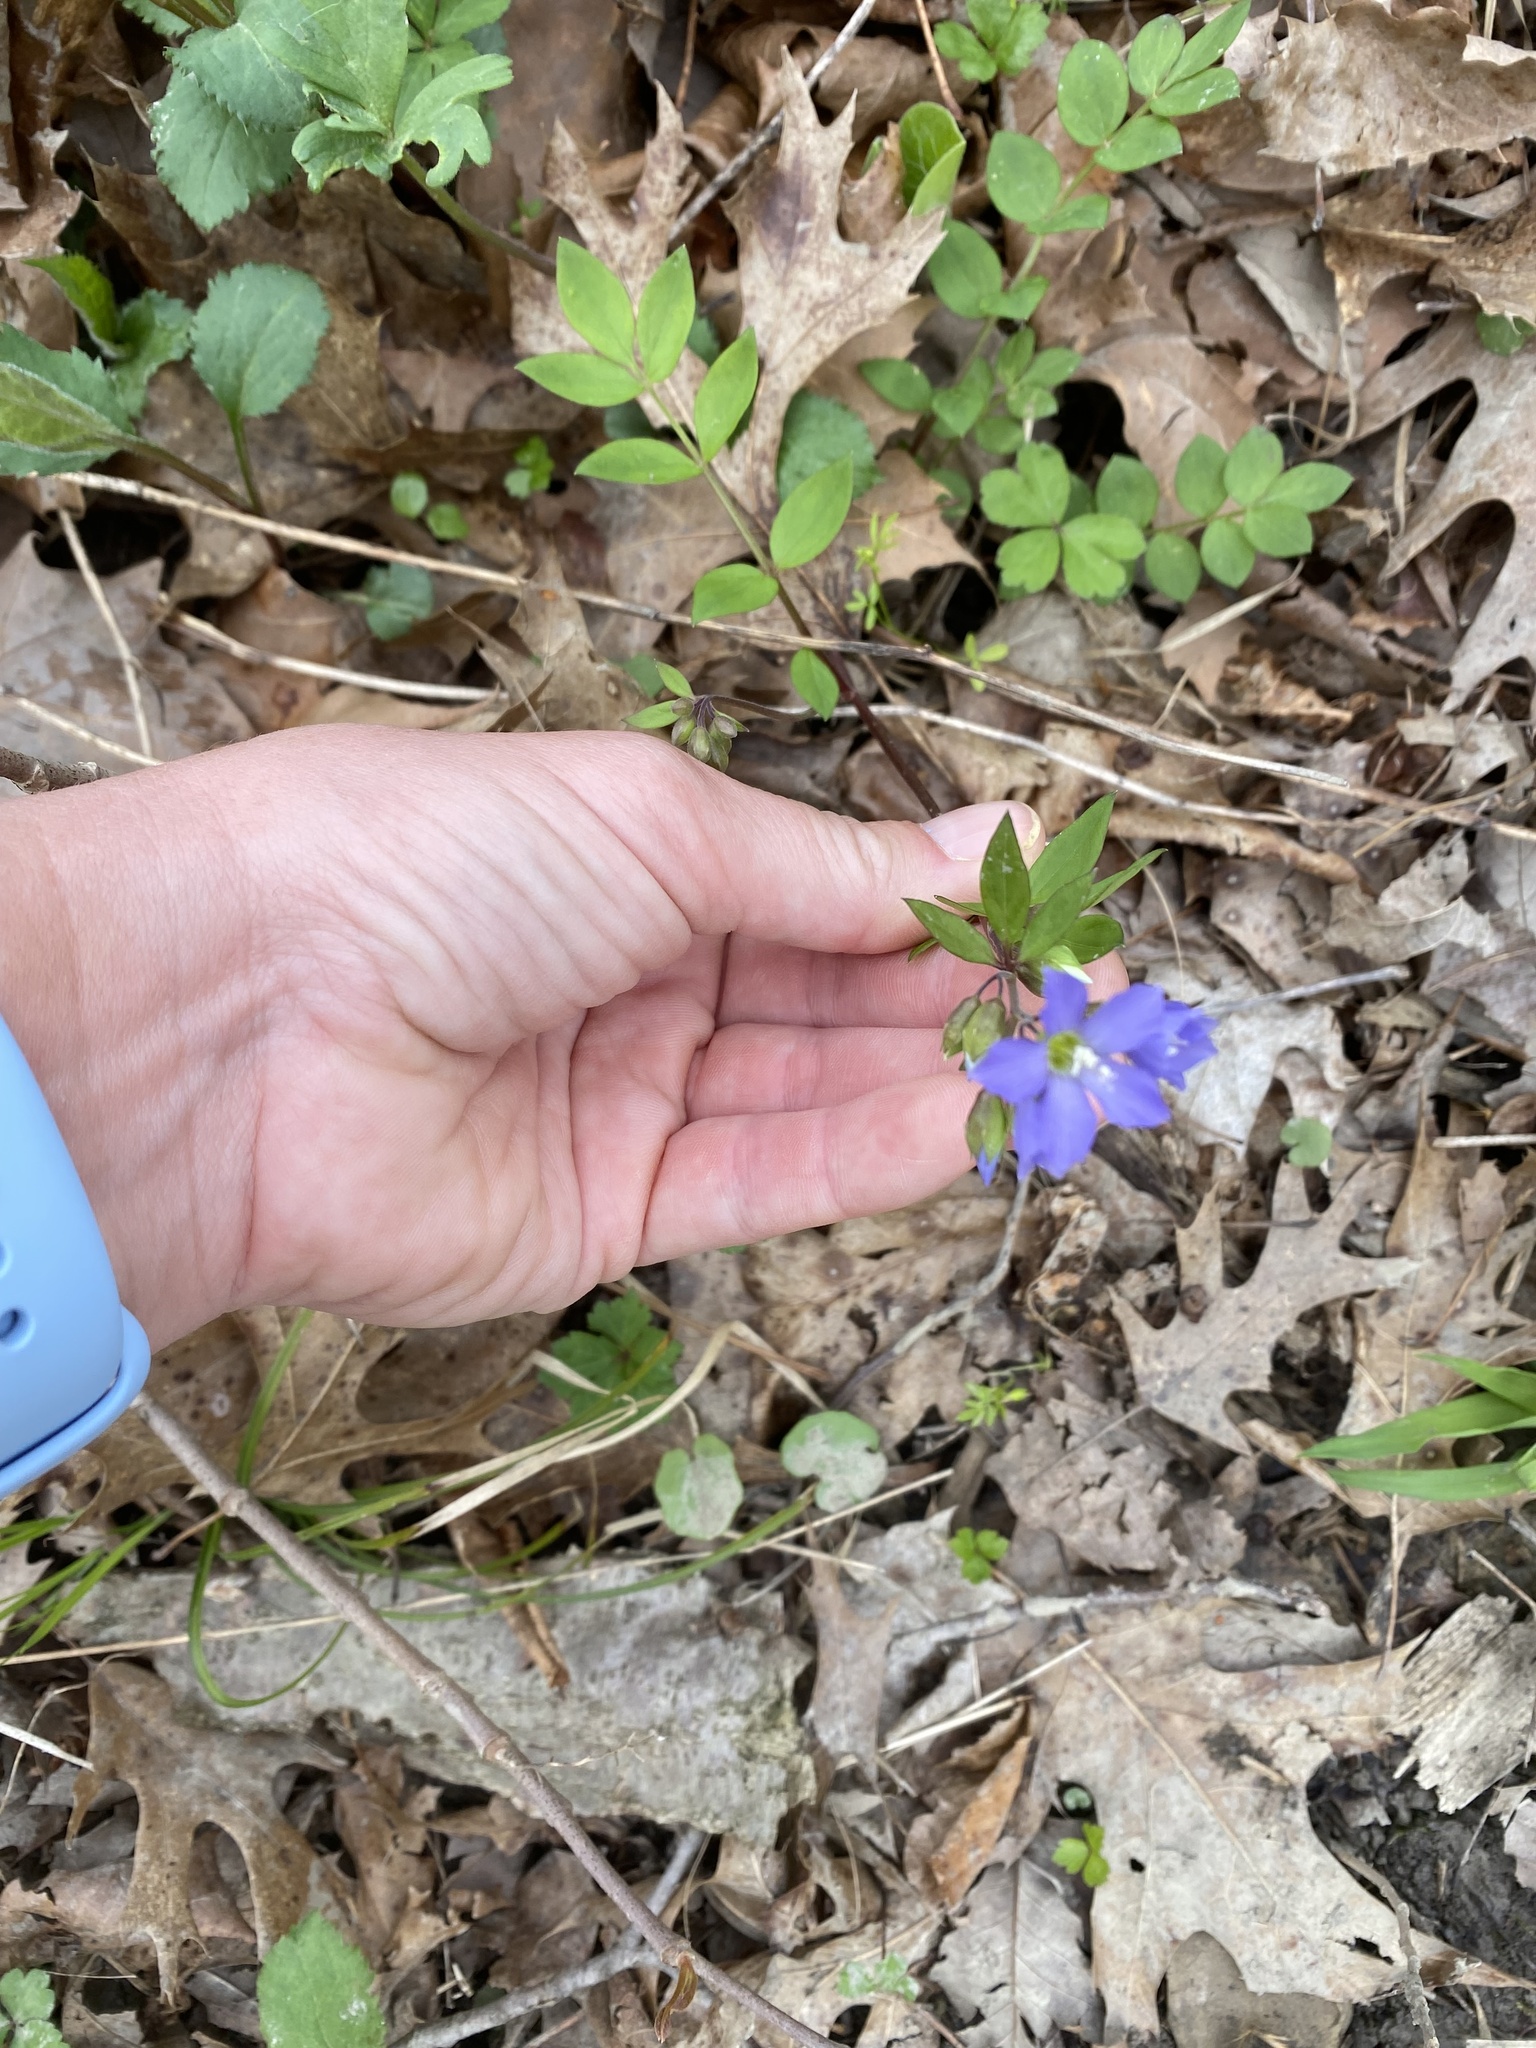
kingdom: Plantae
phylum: Tracheophyta
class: Magnoliopsida
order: Ericales
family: Polemoniaceae
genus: Polemonium
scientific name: Polemonium reptans
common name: Creeping jacob's-ladder
